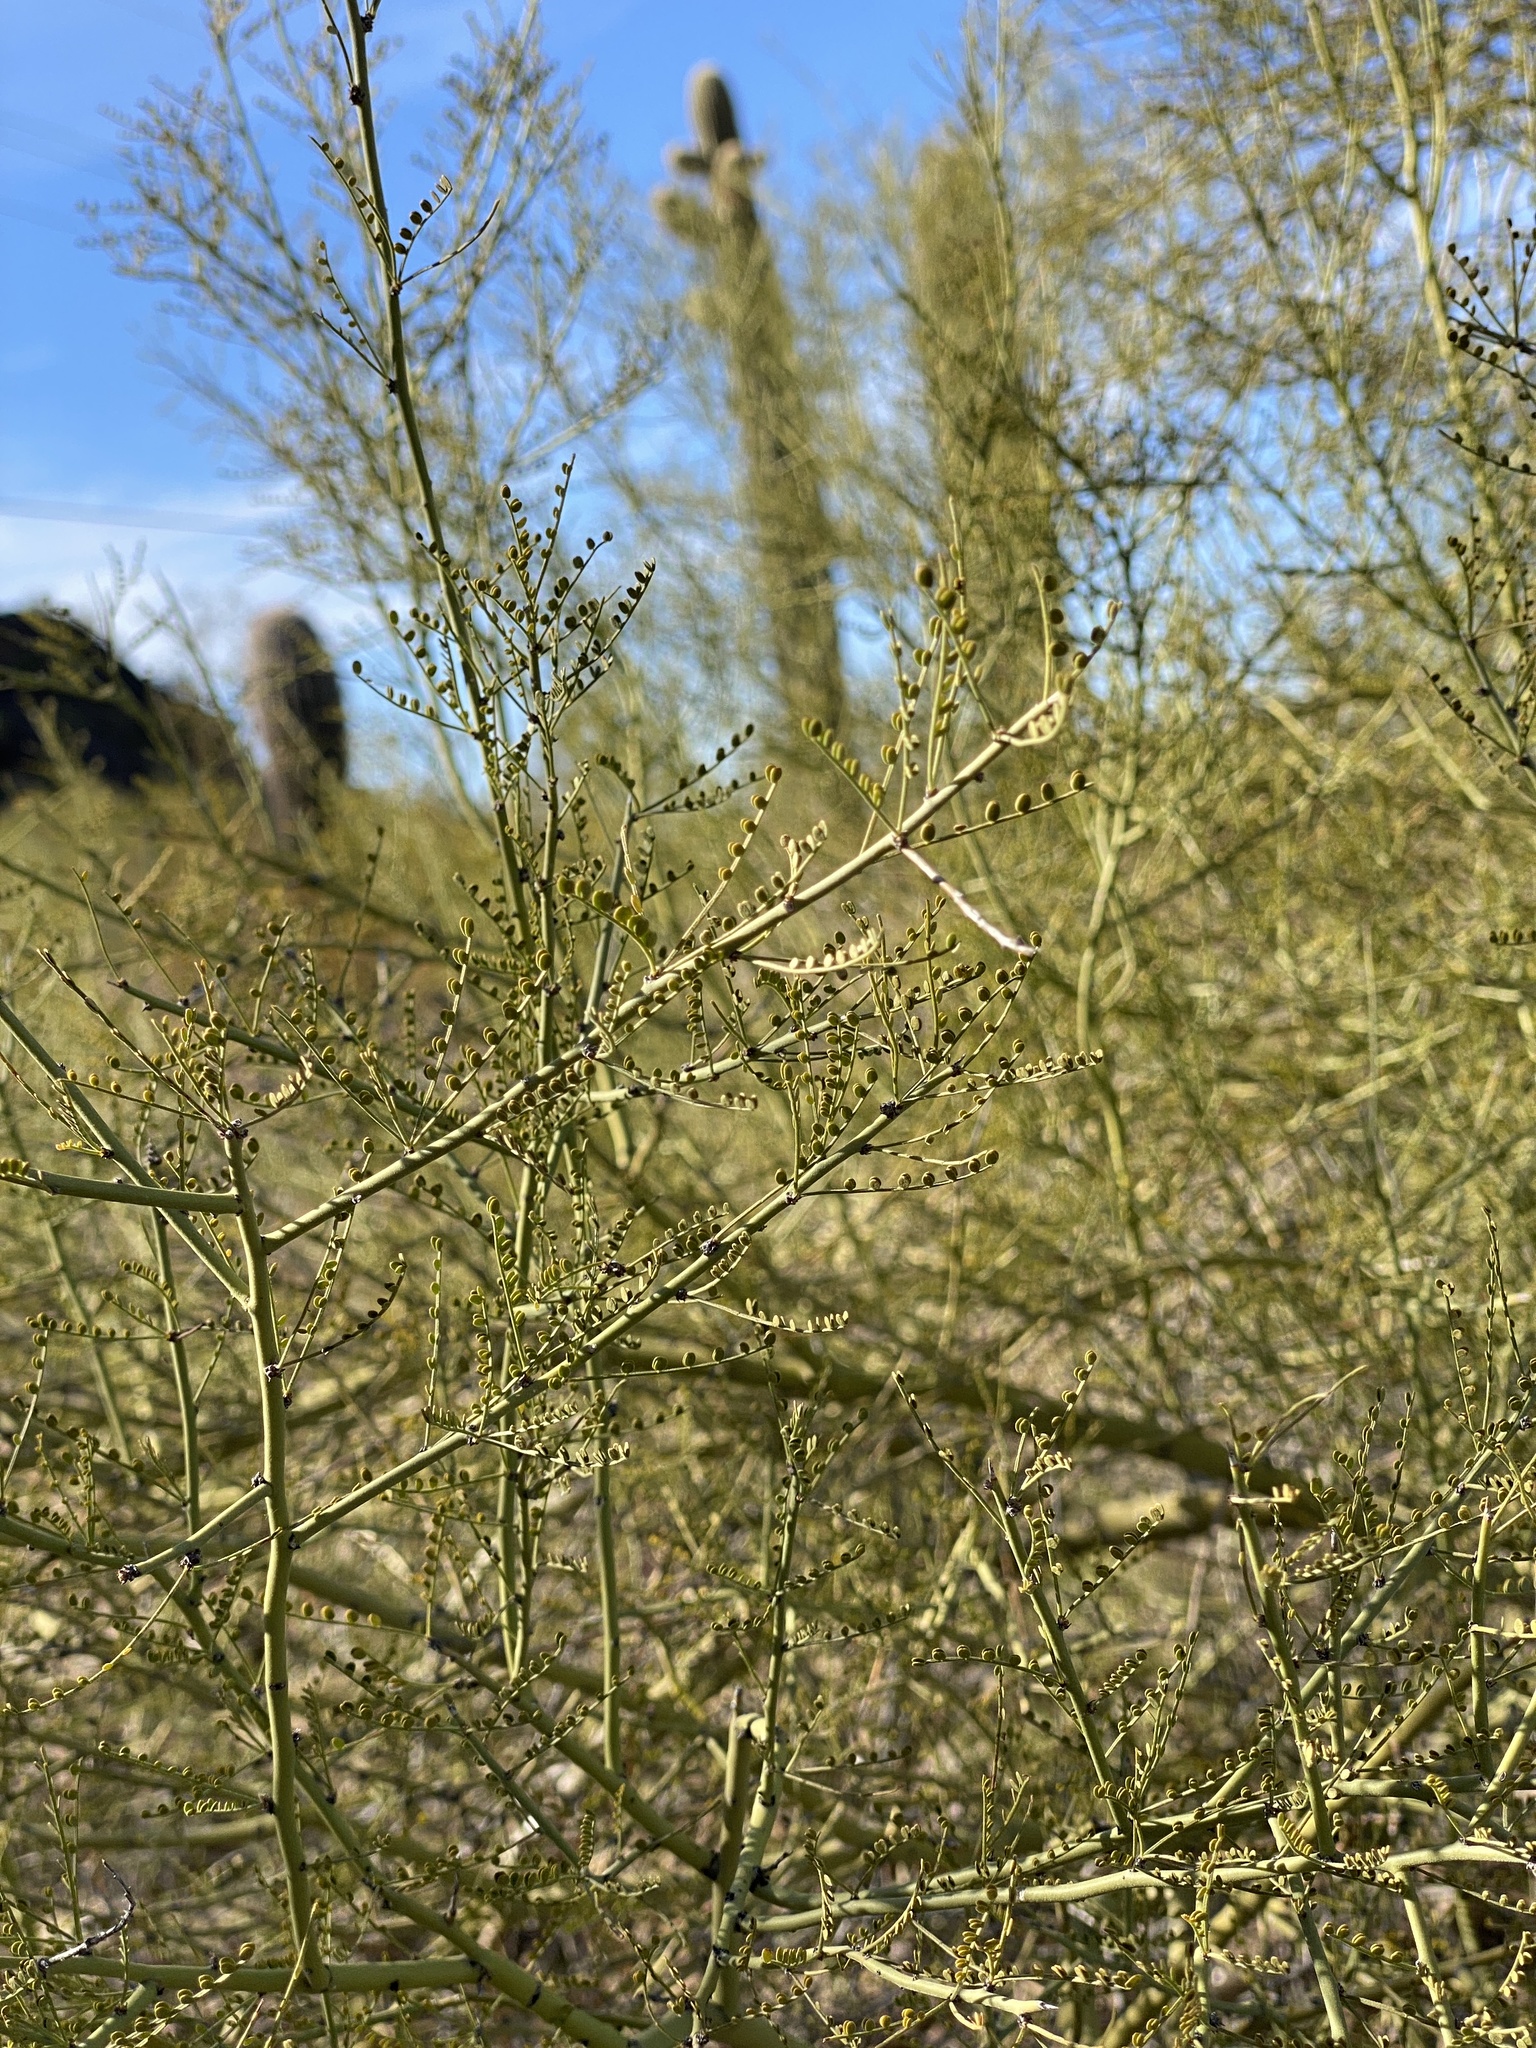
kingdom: Plantae
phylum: Tracheophyta
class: Magnoliopsida
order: Fabales
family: Fabaceae
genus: Parkinsonia
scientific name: Parkinsonia microphylla
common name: Yellow paloverde
